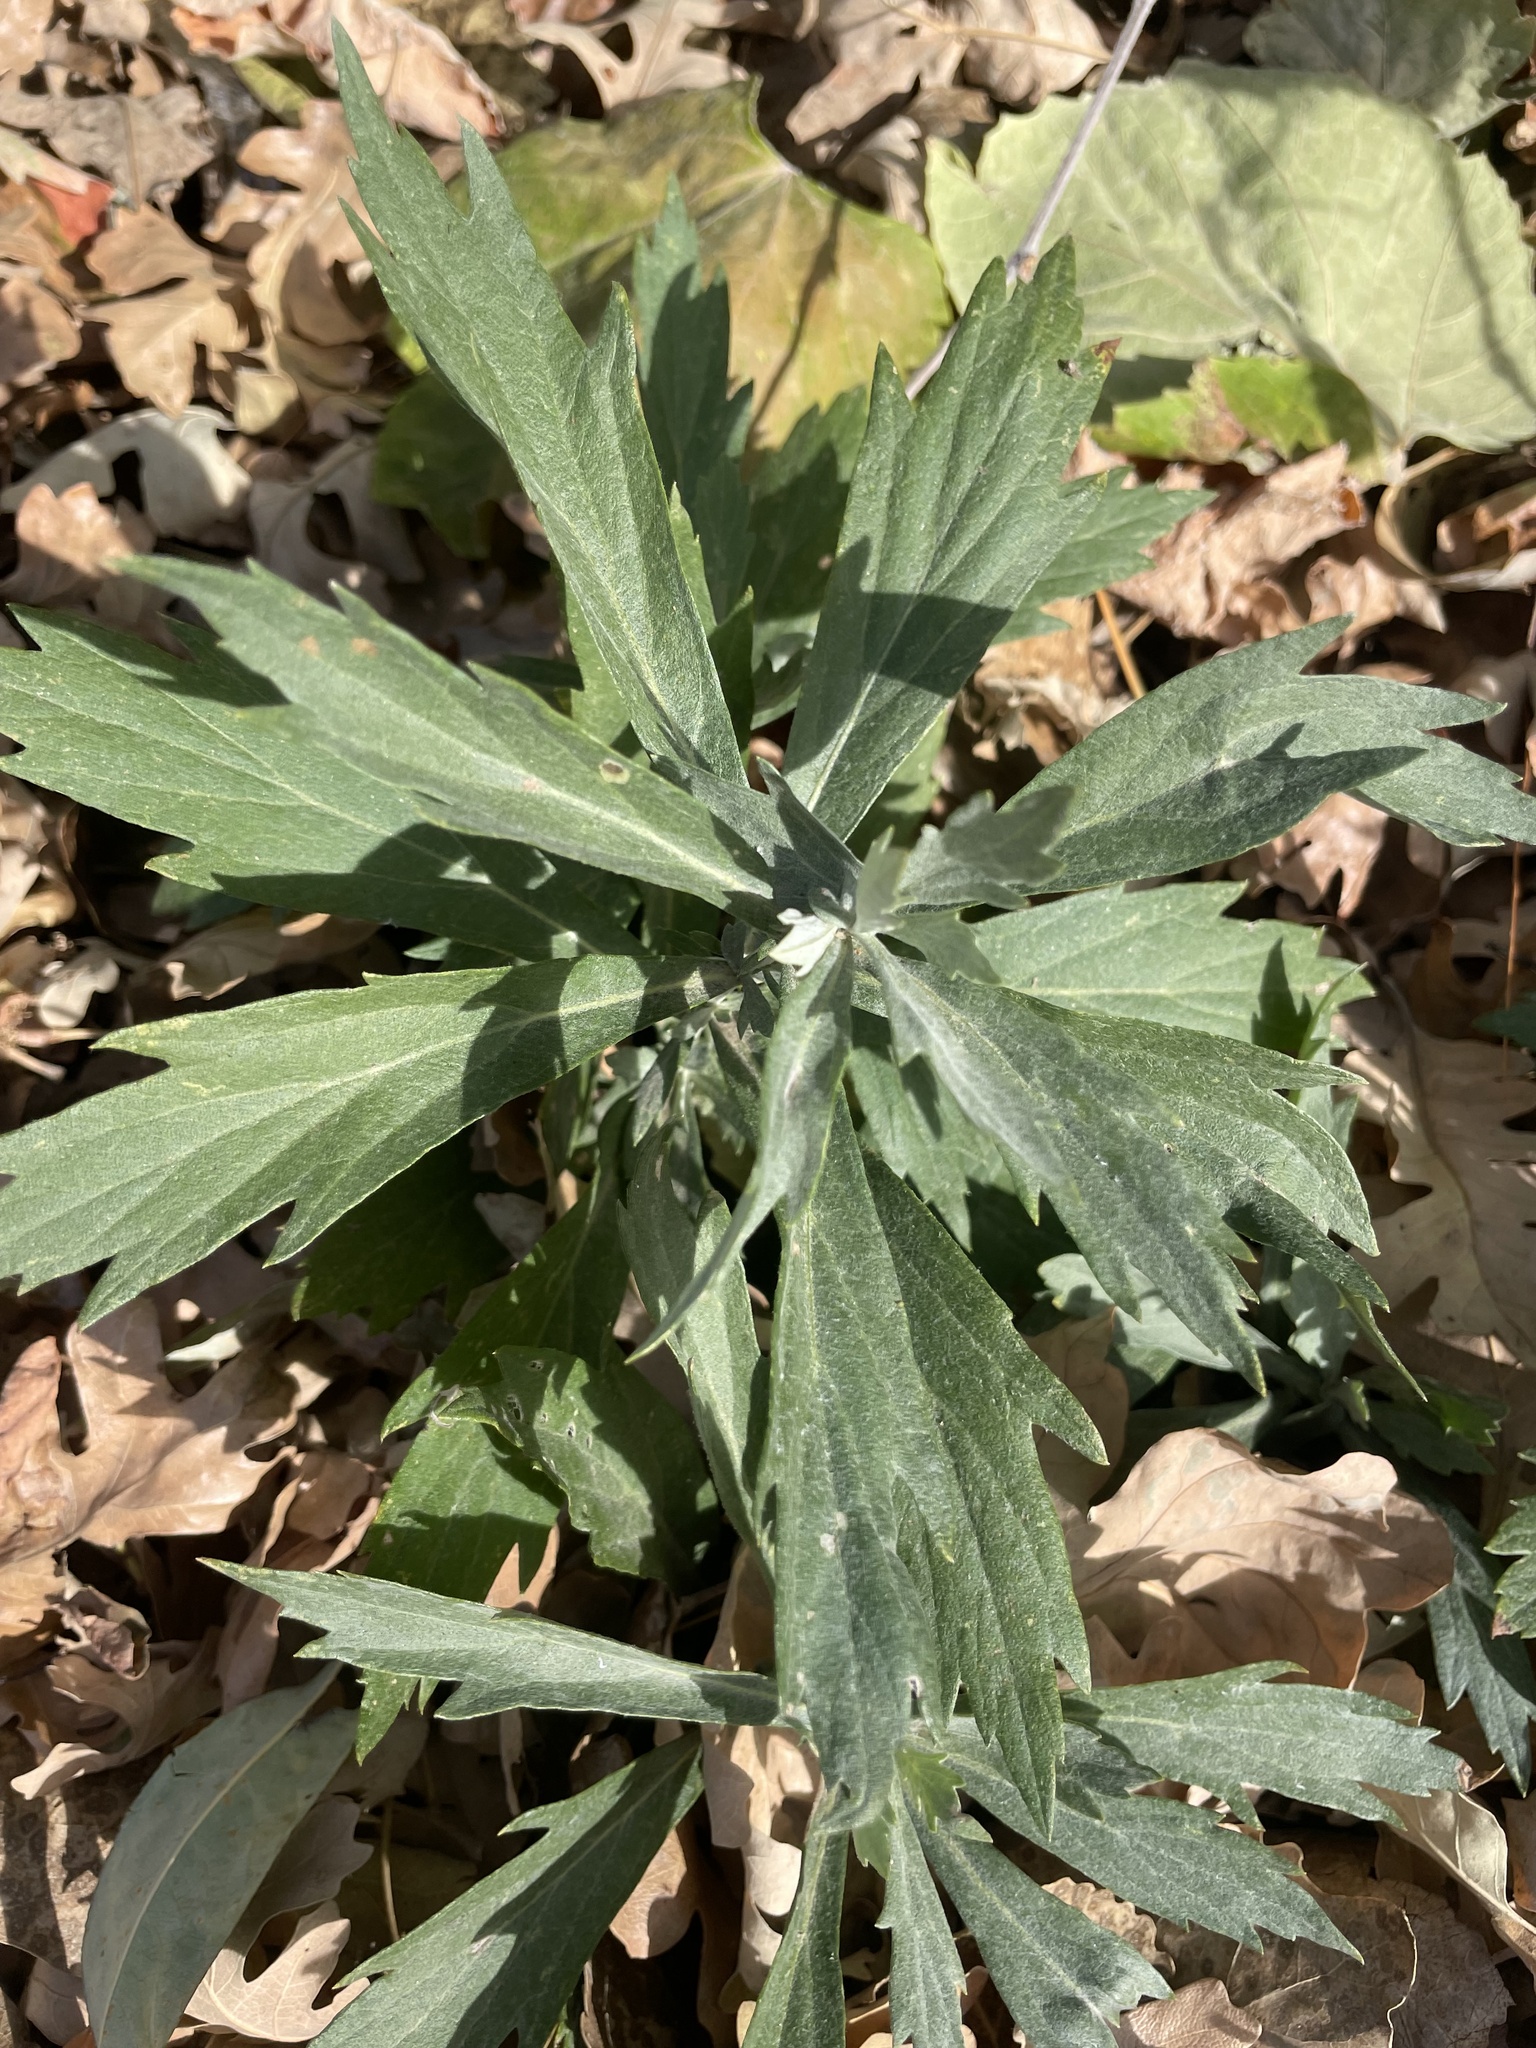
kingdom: Plantae
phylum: Tracheophyta
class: Magnoliopsida
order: Asterales
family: Asteraceae
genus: Artemisia
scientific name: Artemisia douglasiana
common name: Northwest mugwort
